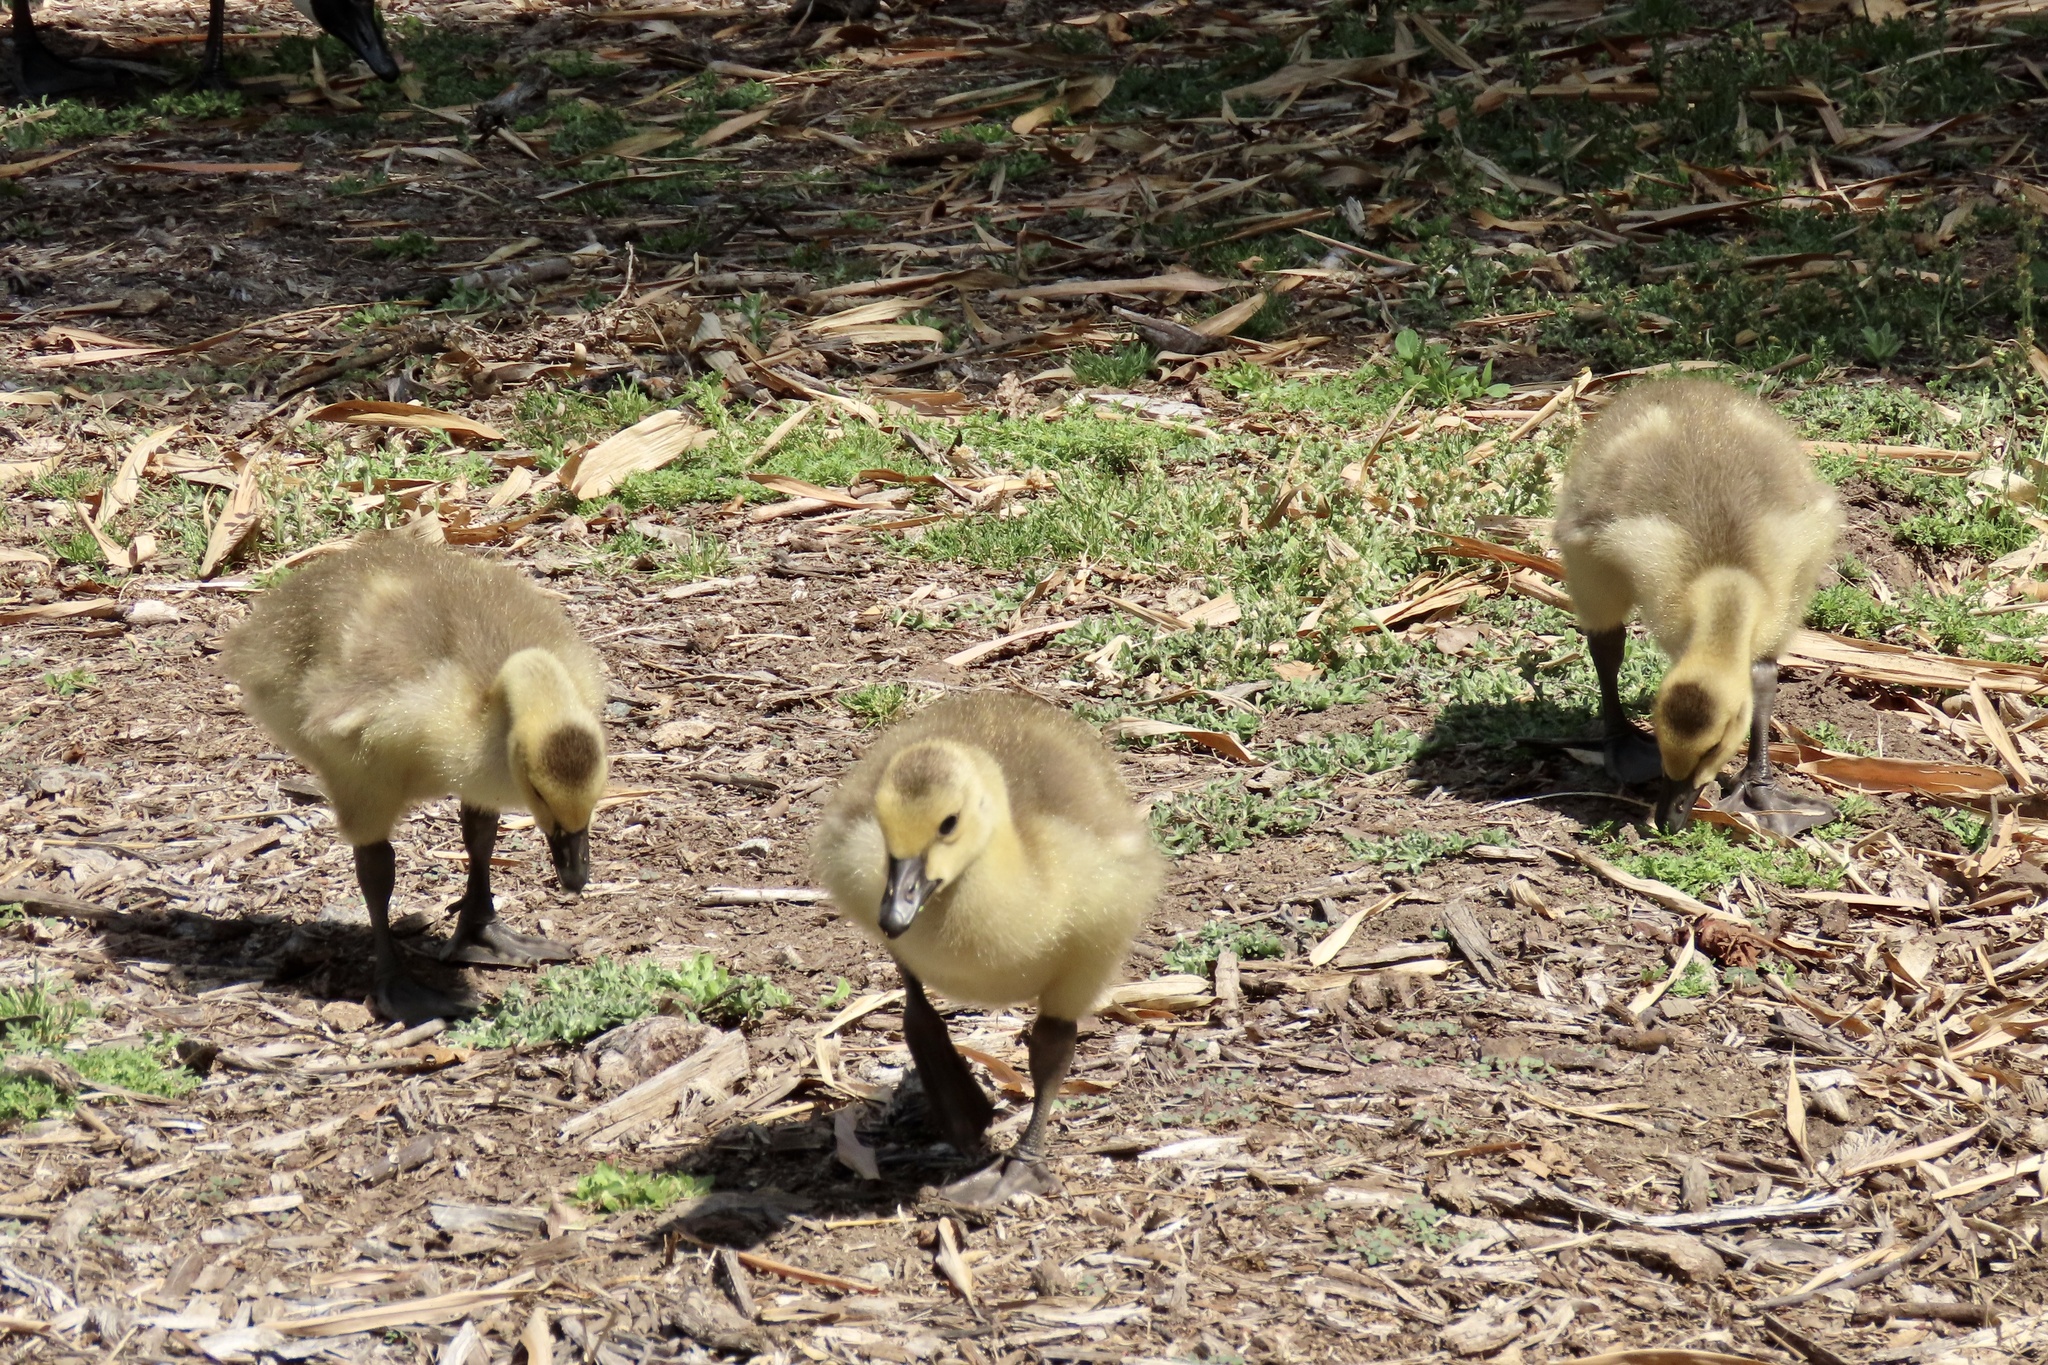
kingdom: Animalia
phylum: Chordata
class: Aves
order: Anseriformes
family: Anatidae
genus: Branta
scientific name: Branta canadensis
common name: Canada goose
